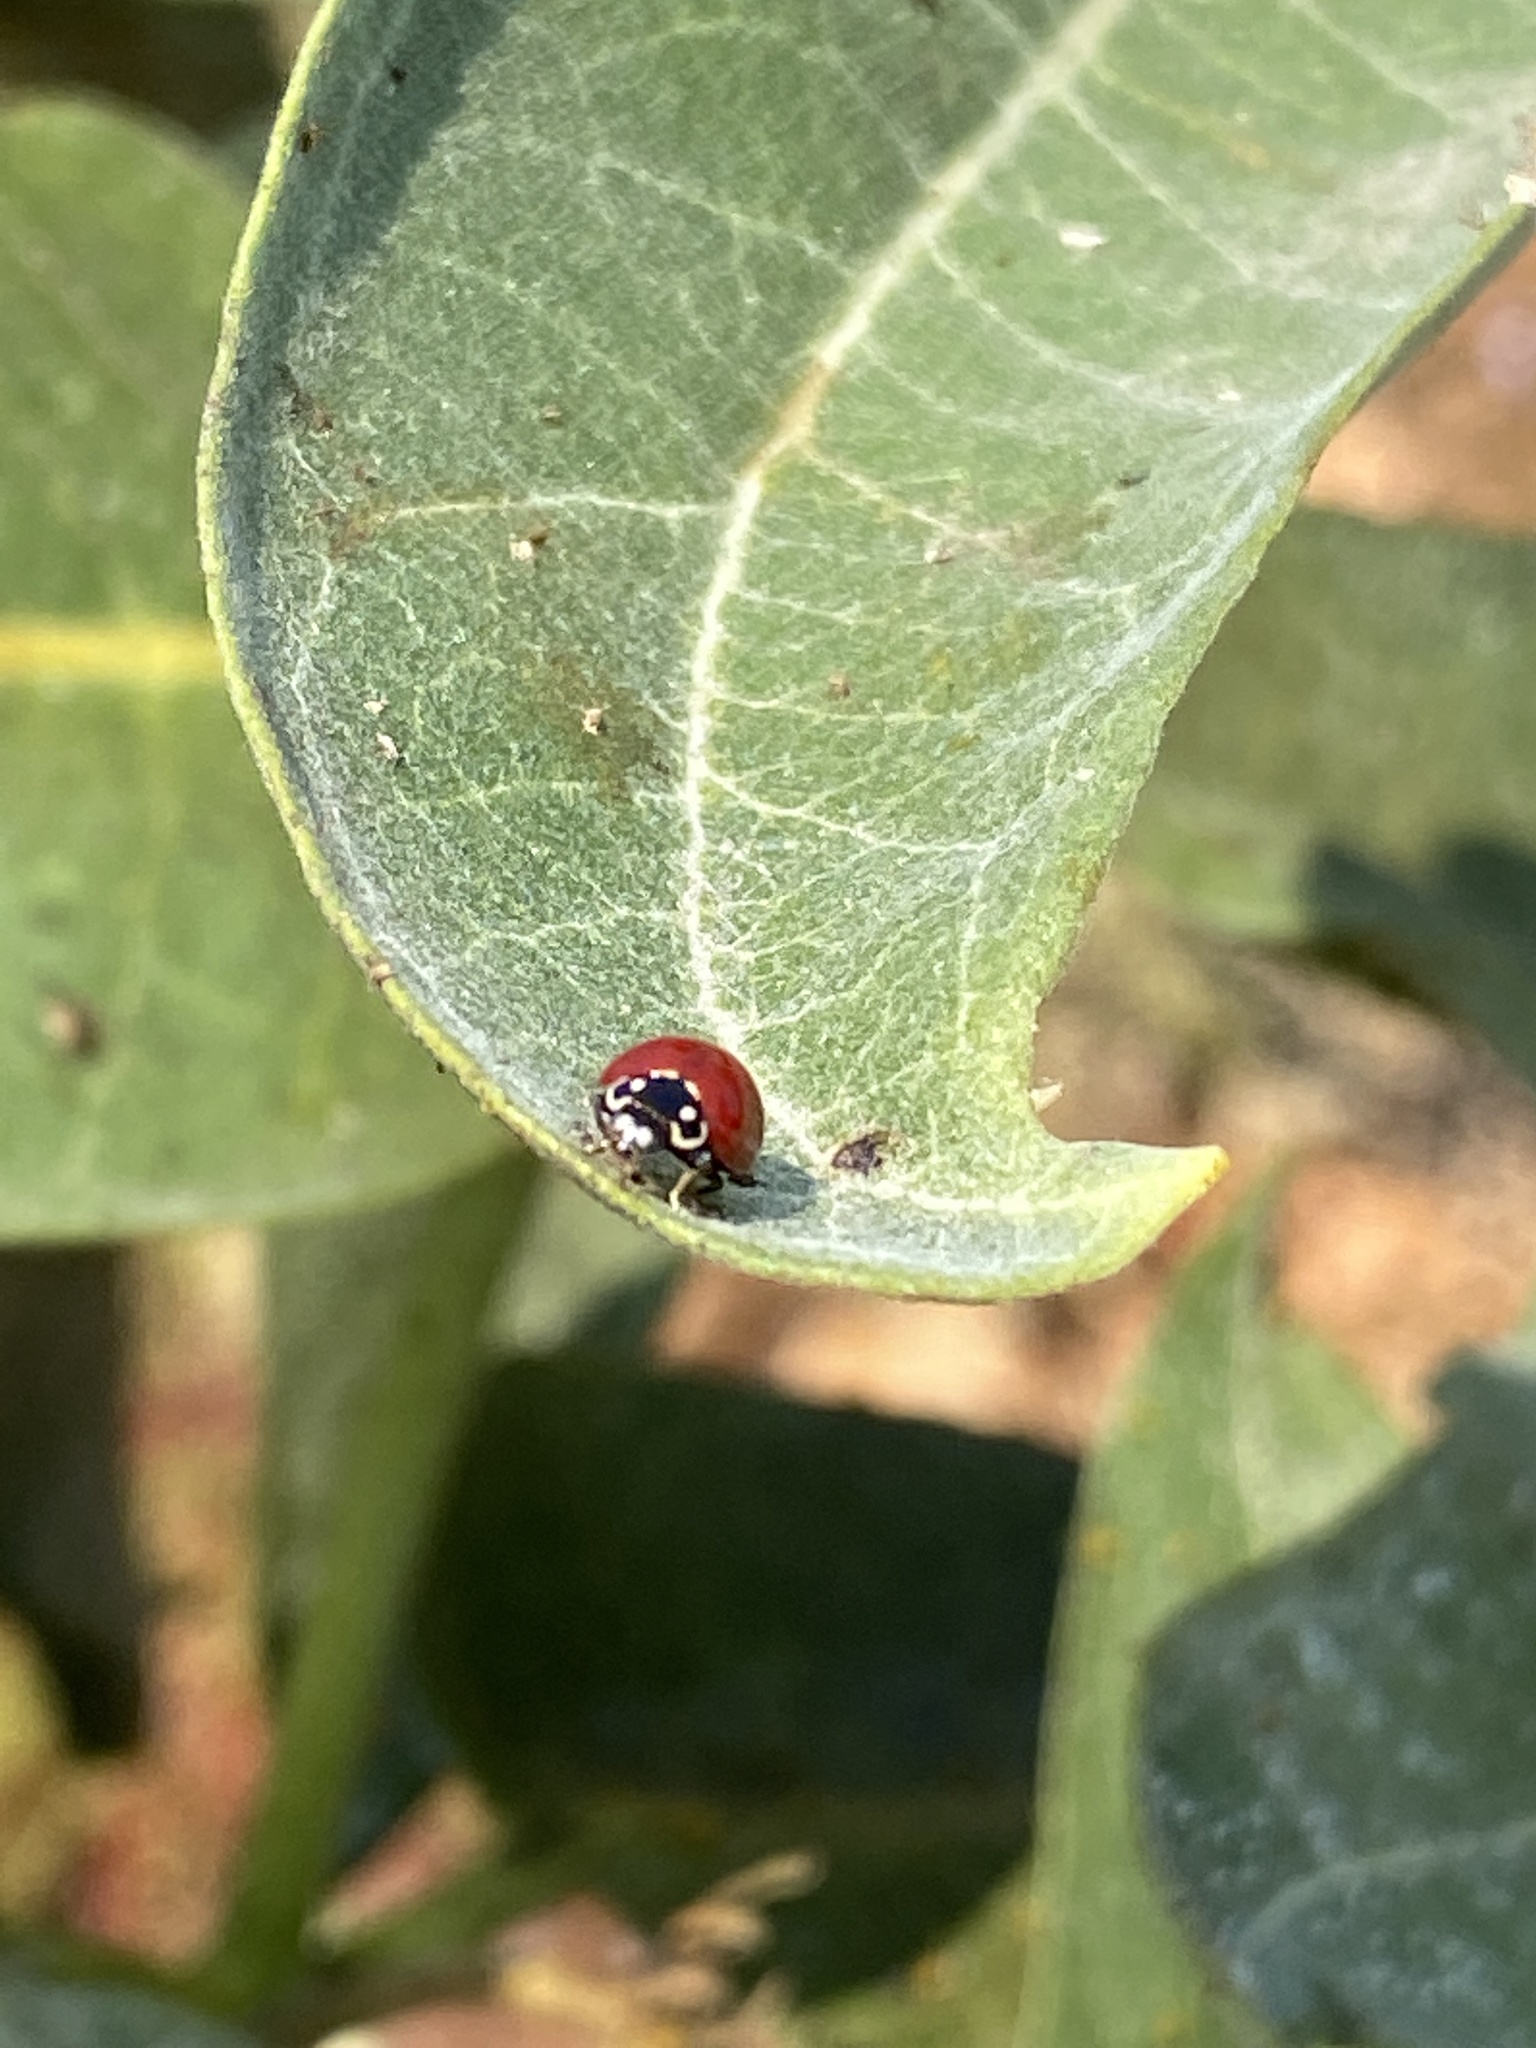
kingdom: Animalia
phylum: Arthropoda
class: Insecta
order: Coleoptera
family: Coccinellidae
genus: Cycloneda
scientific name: Cycloneda sanguinea
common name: Ladybird beetle
